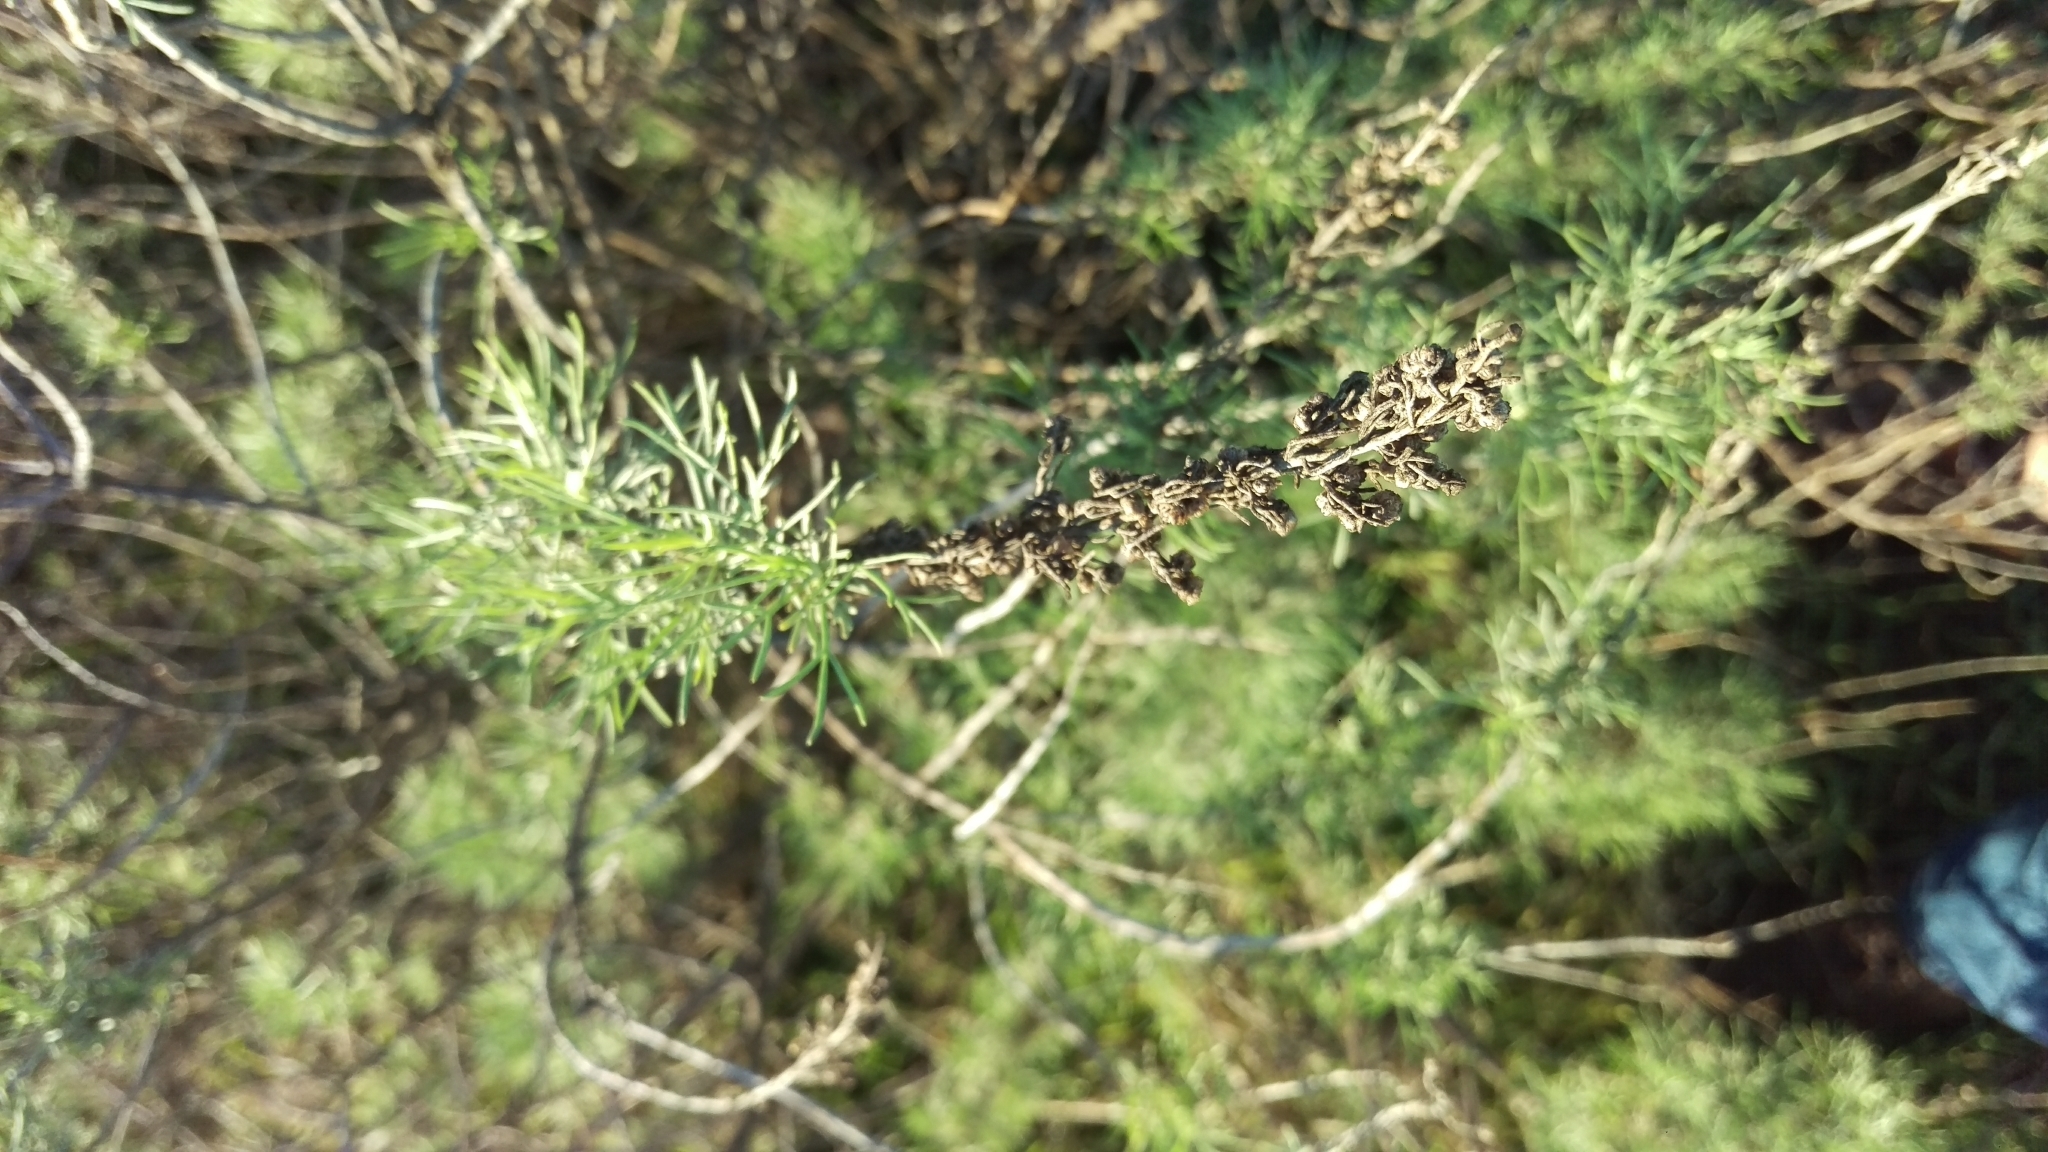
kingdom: Plantae
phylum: Tracheophyta
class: Magnoliopsida
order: Asterales
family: Asteraceae
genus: Artemisia
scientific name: Artemisia californica
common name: California sagebrush
